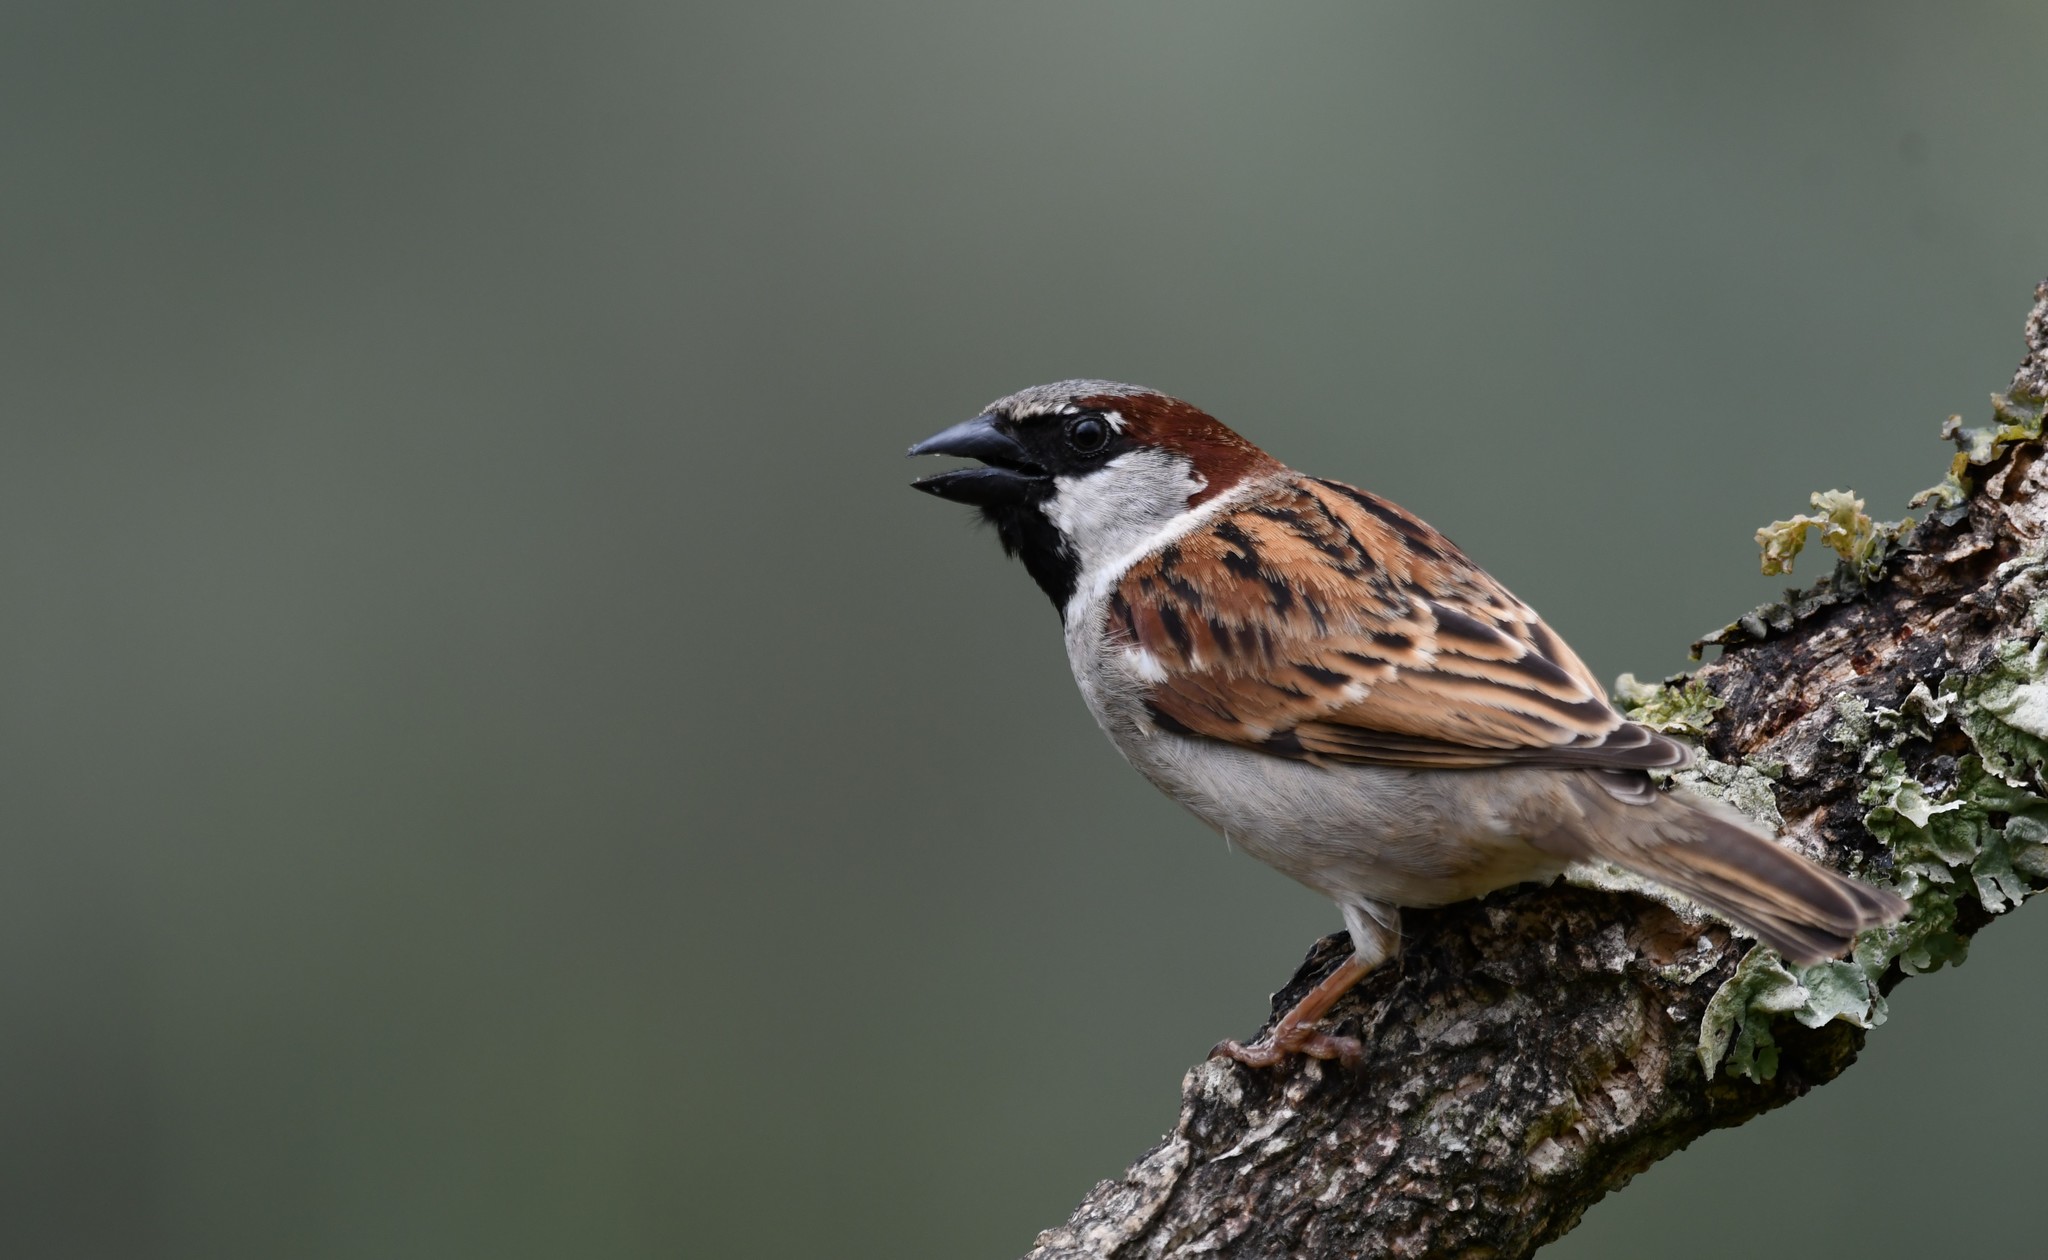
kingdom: Animalia
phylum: Chordata
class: Aves
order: Passeriformes
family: Passeridae
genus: Passer
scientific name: Passer domesticus
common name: House sparrow
